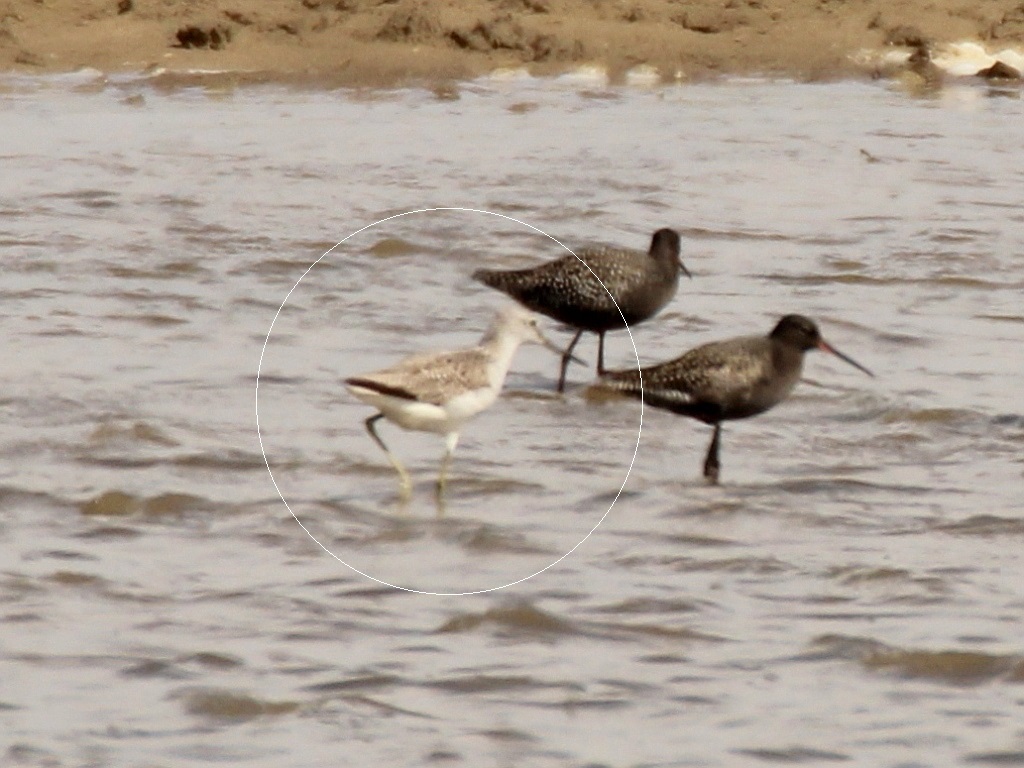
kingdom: Animalia
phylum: Chordata
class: Aves
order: Charadriiformes
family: Scolopacidae
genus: Tringa
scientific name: Tringa nebularia
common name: Common greenshank
